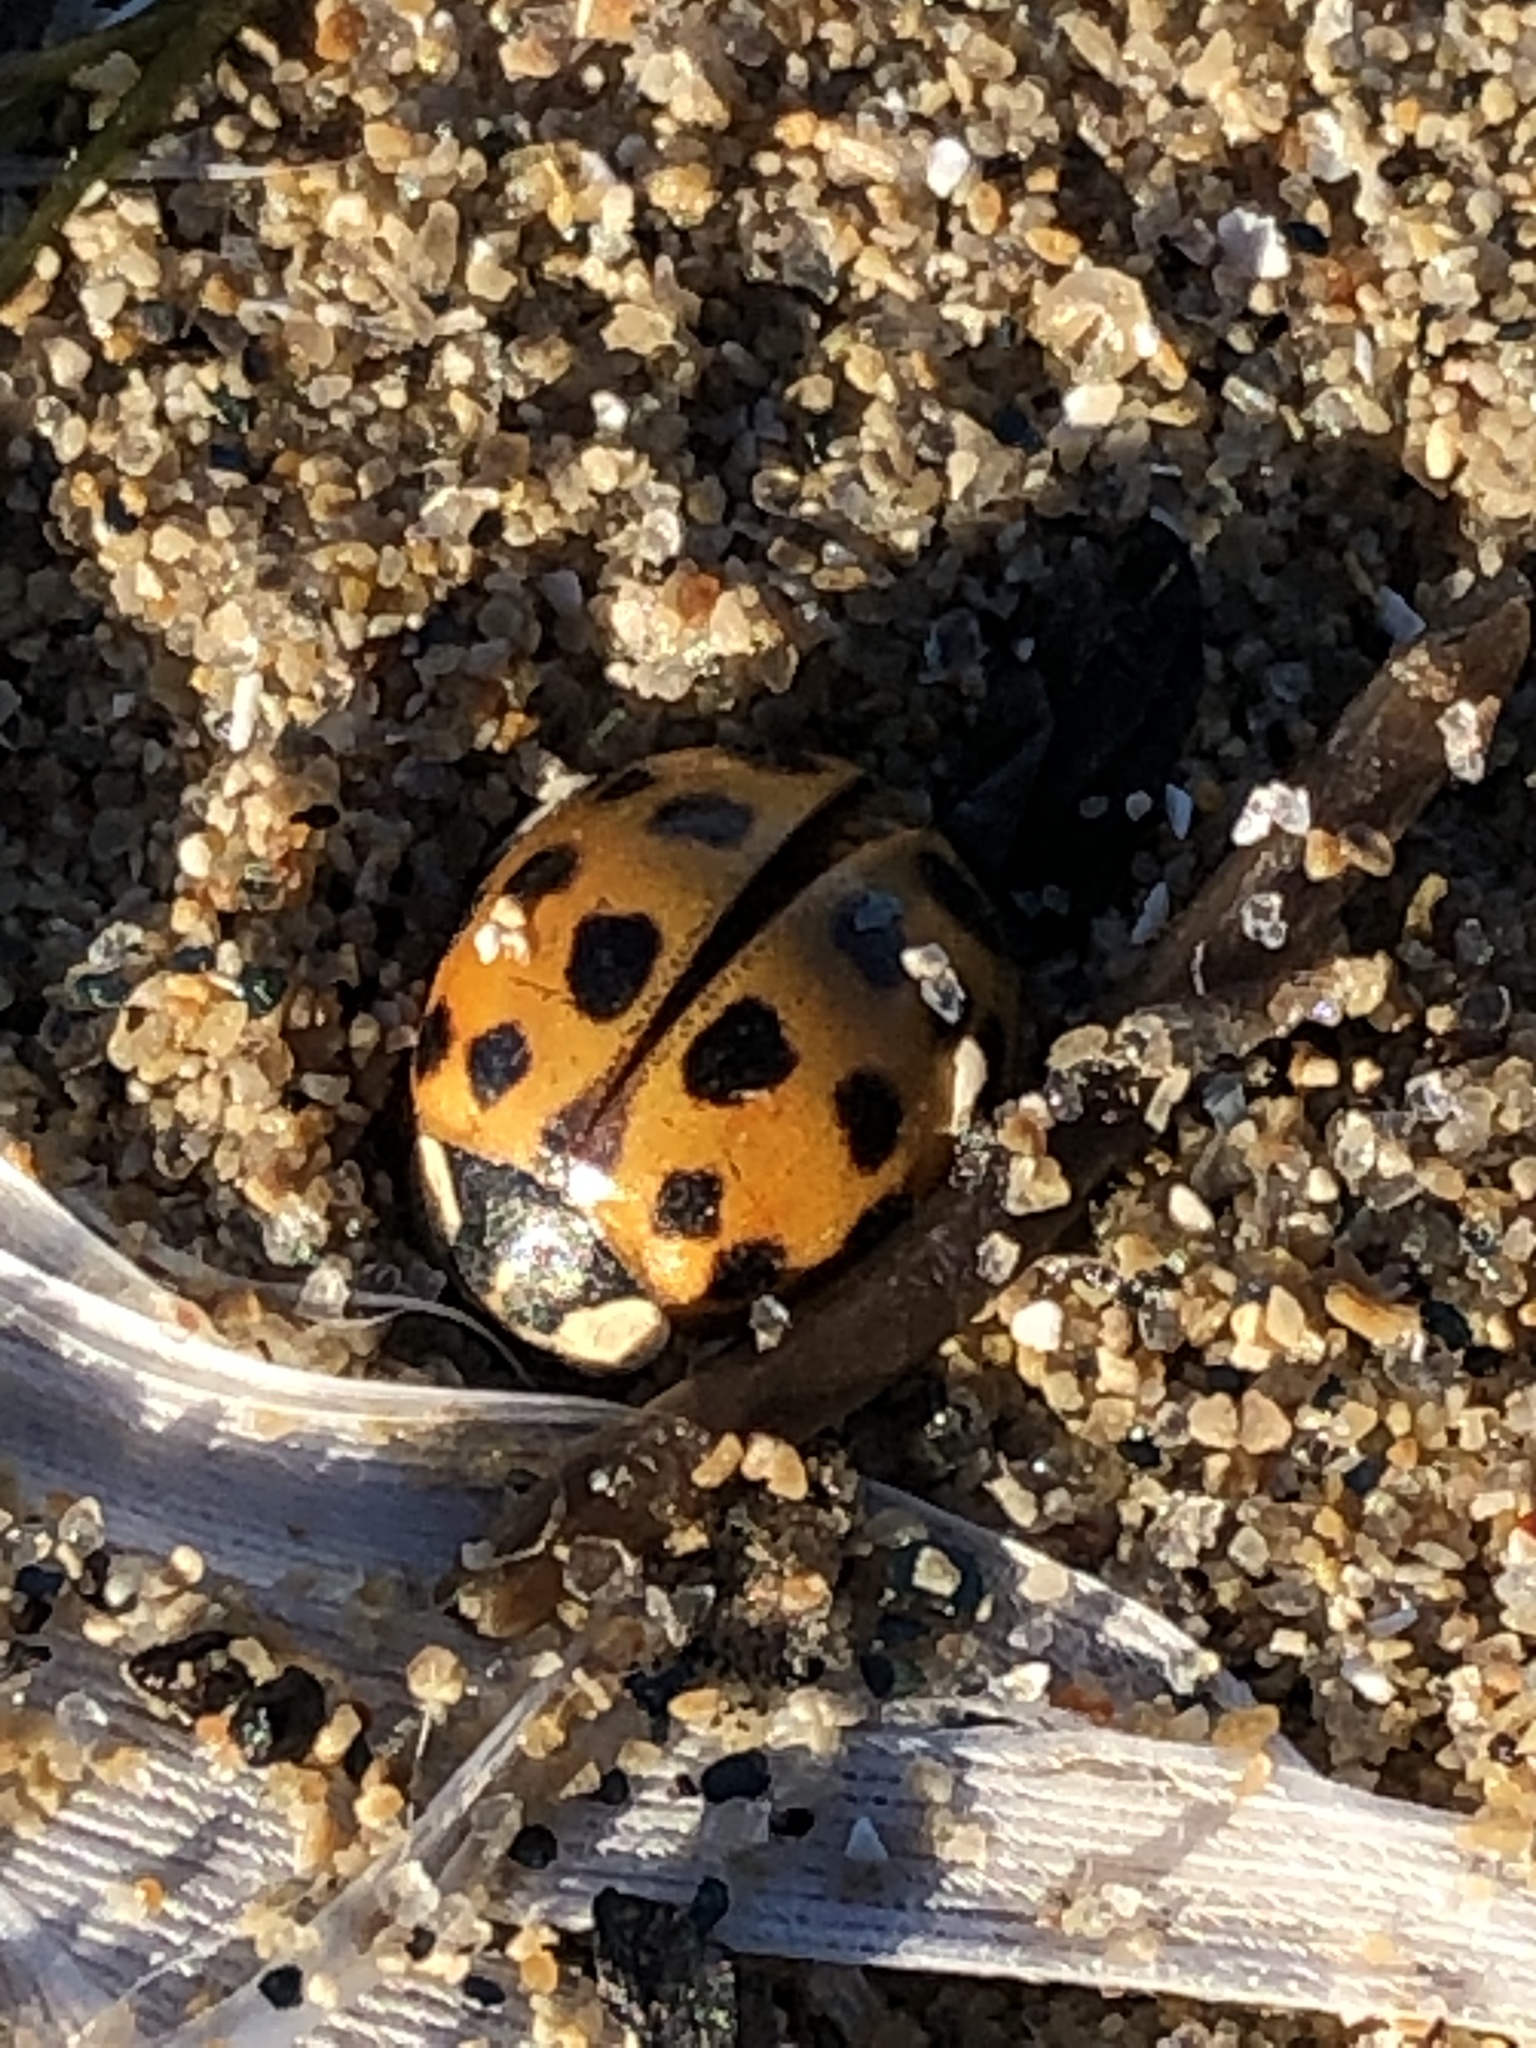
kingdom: Animalia
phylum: Arthropoda
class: Insecta
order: Coleoptera
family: Coccinellidae
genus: Harmonia
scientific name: Harmonia axyridis
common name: Harlequin ladybird
